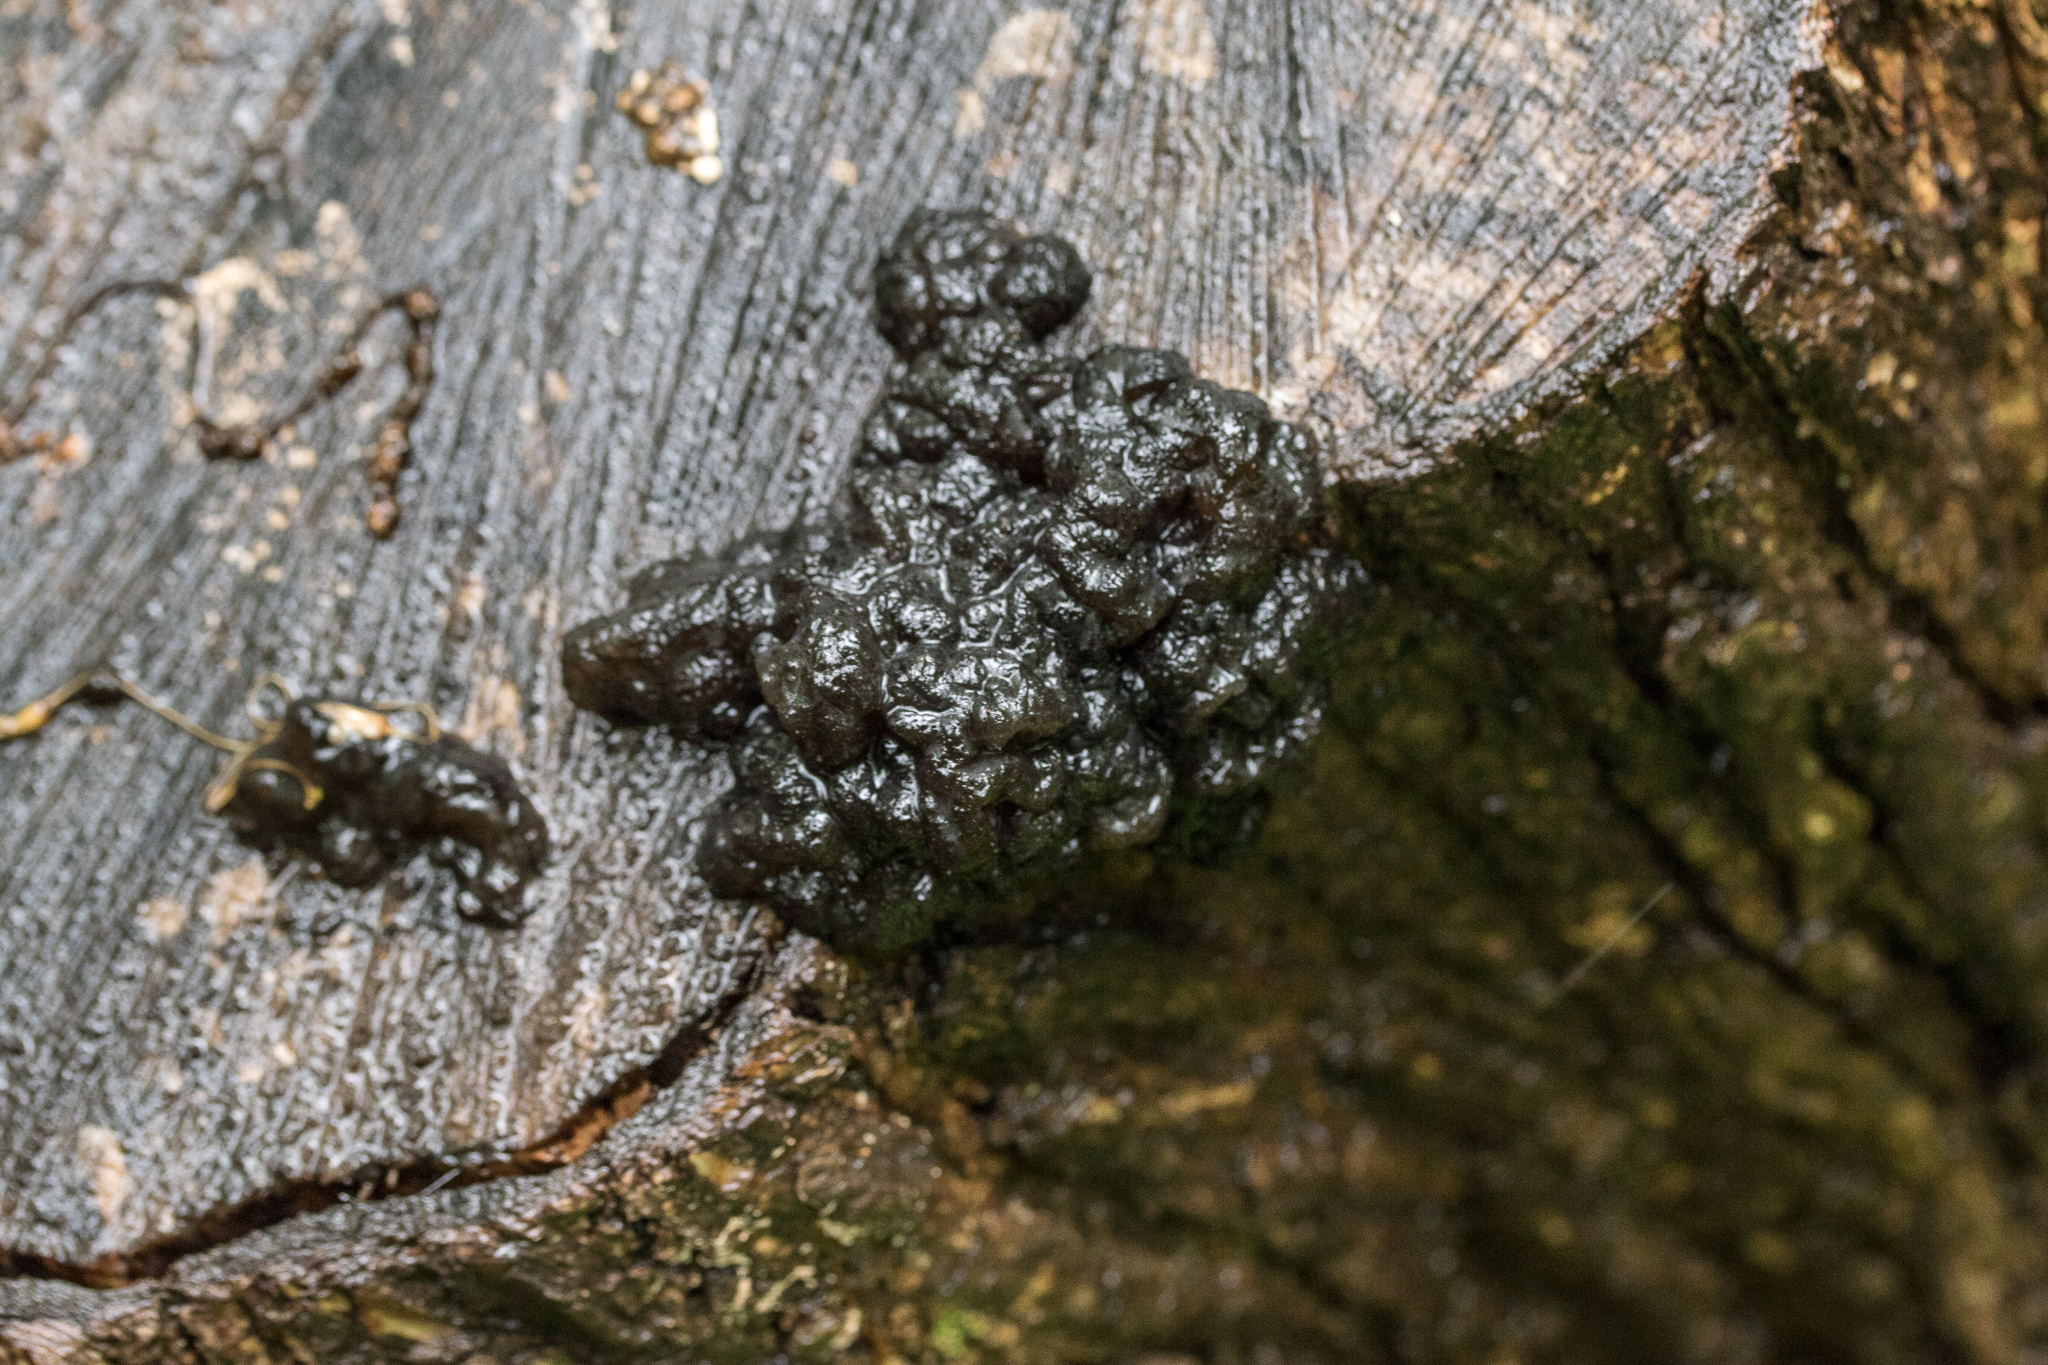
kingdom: Fungi
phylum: Basidiomycota
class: Agaricomycetes
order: Auriculariales
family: Auriculariaceae
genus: Exidia
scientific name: Exidia glandulosa
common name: Witches' butter
